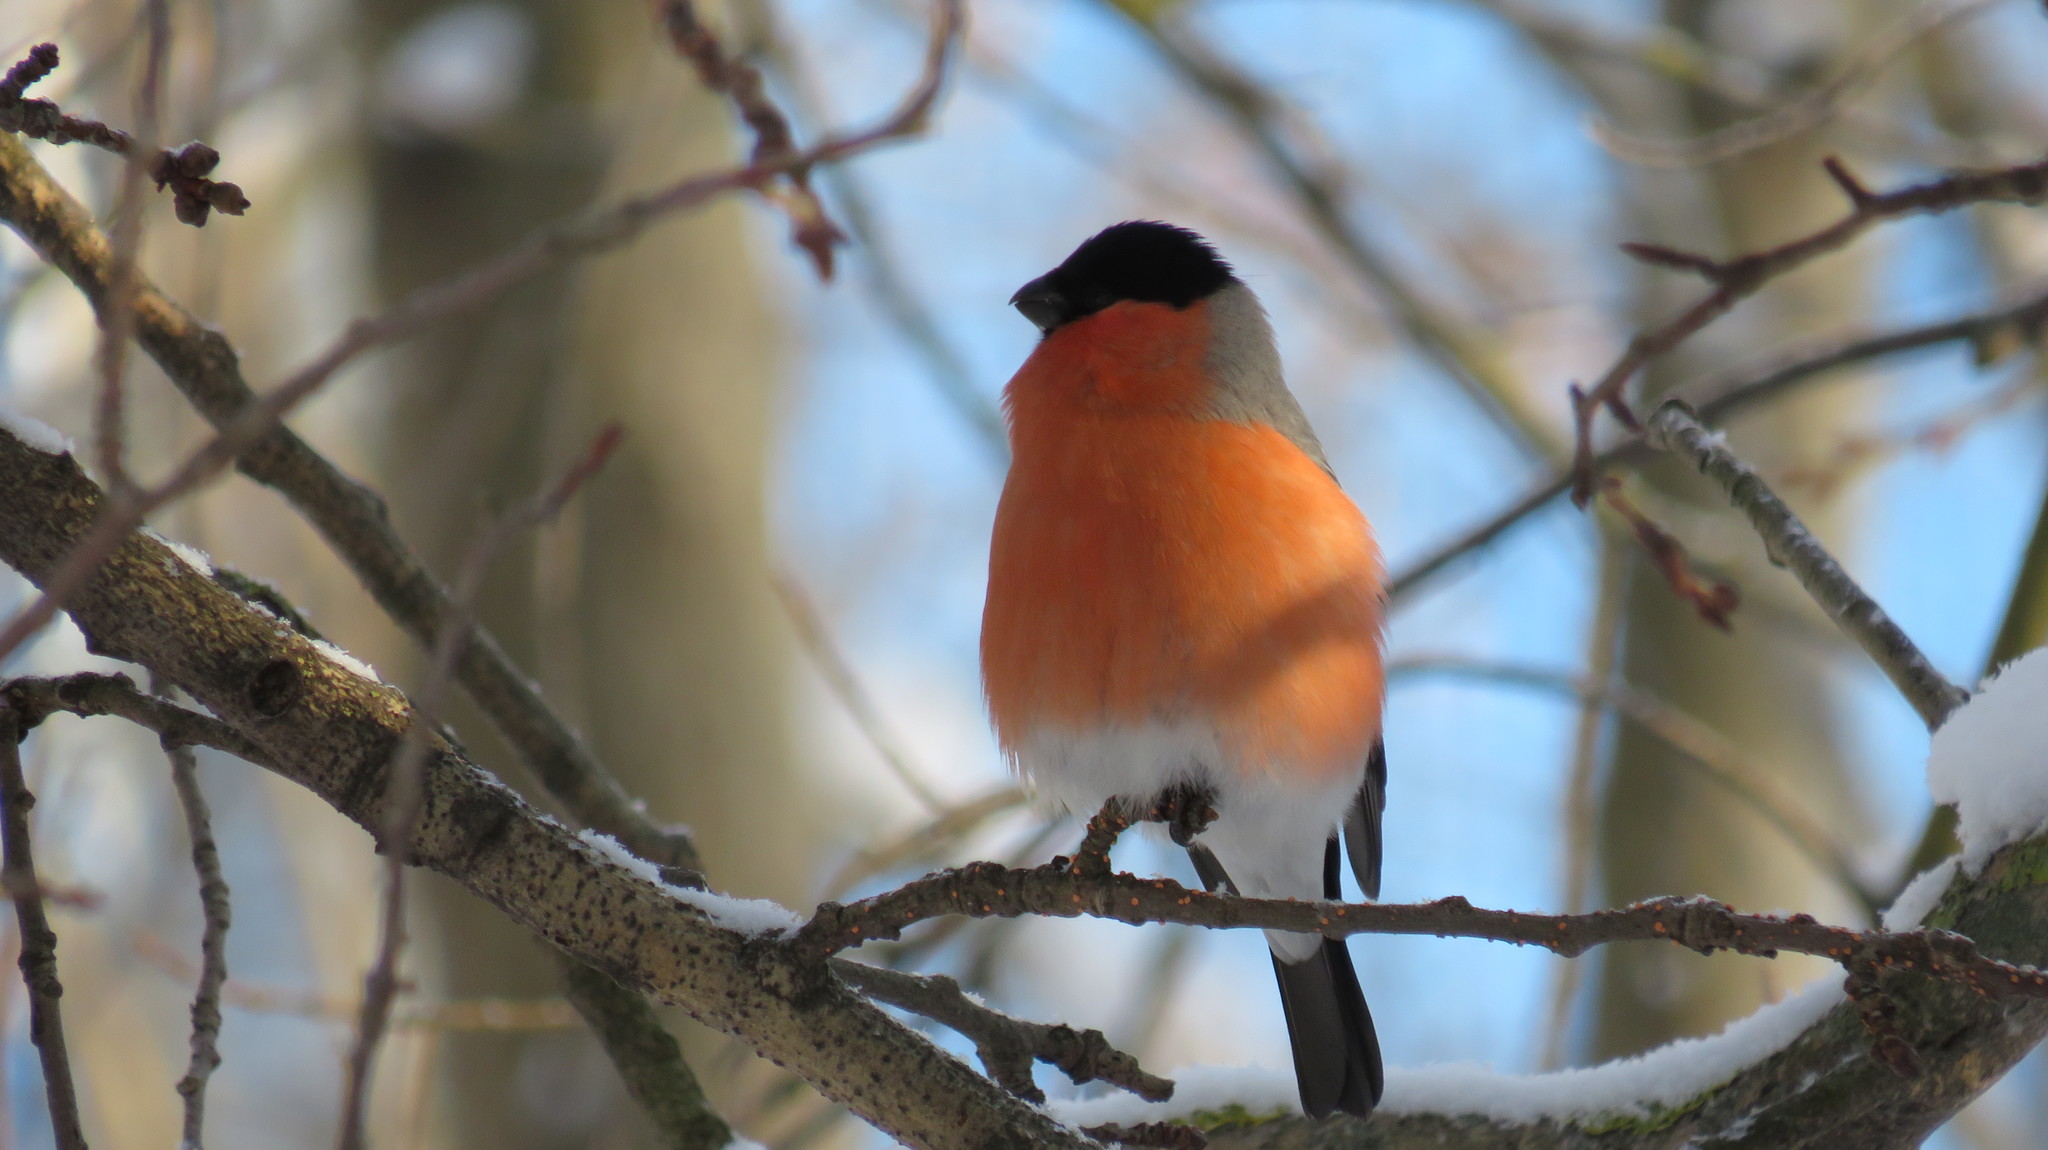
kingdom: Animalia
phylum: Chordata
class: Aves
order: Passeriformes
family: Fringillidae
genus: Pyrrhula
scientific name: Pyrrhula pyrrhula
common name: Eurasian bullfinch
